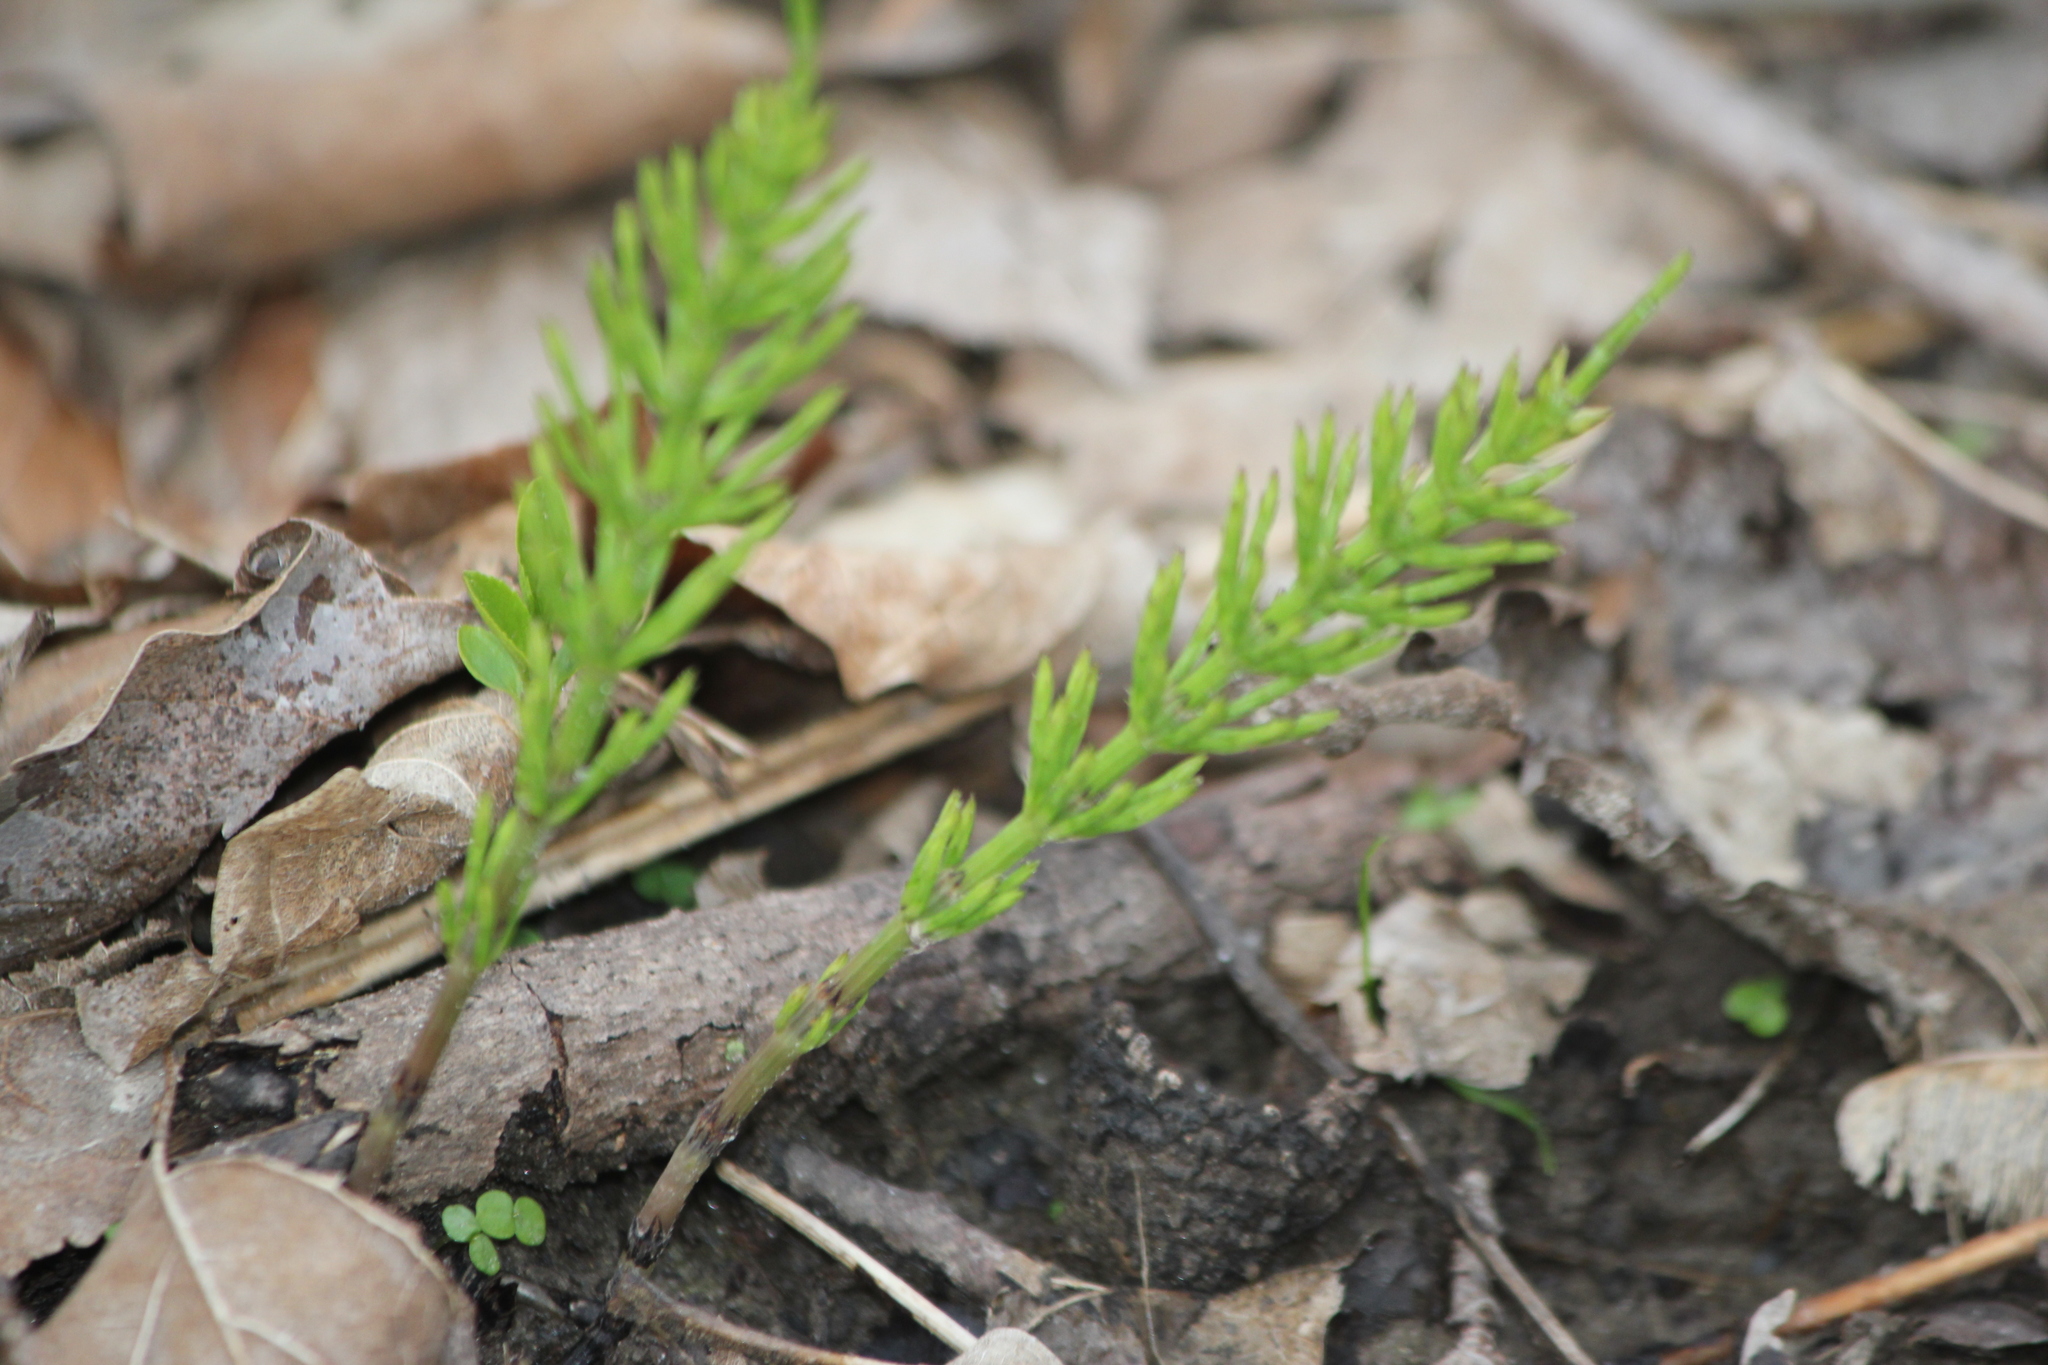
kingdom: Plantae
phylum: Tracheophyta
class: Polypodiopsida
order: Equisetales
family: Equisetaceae
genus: Equisetum
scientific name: Equisetum arvense
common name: Field horsetail
